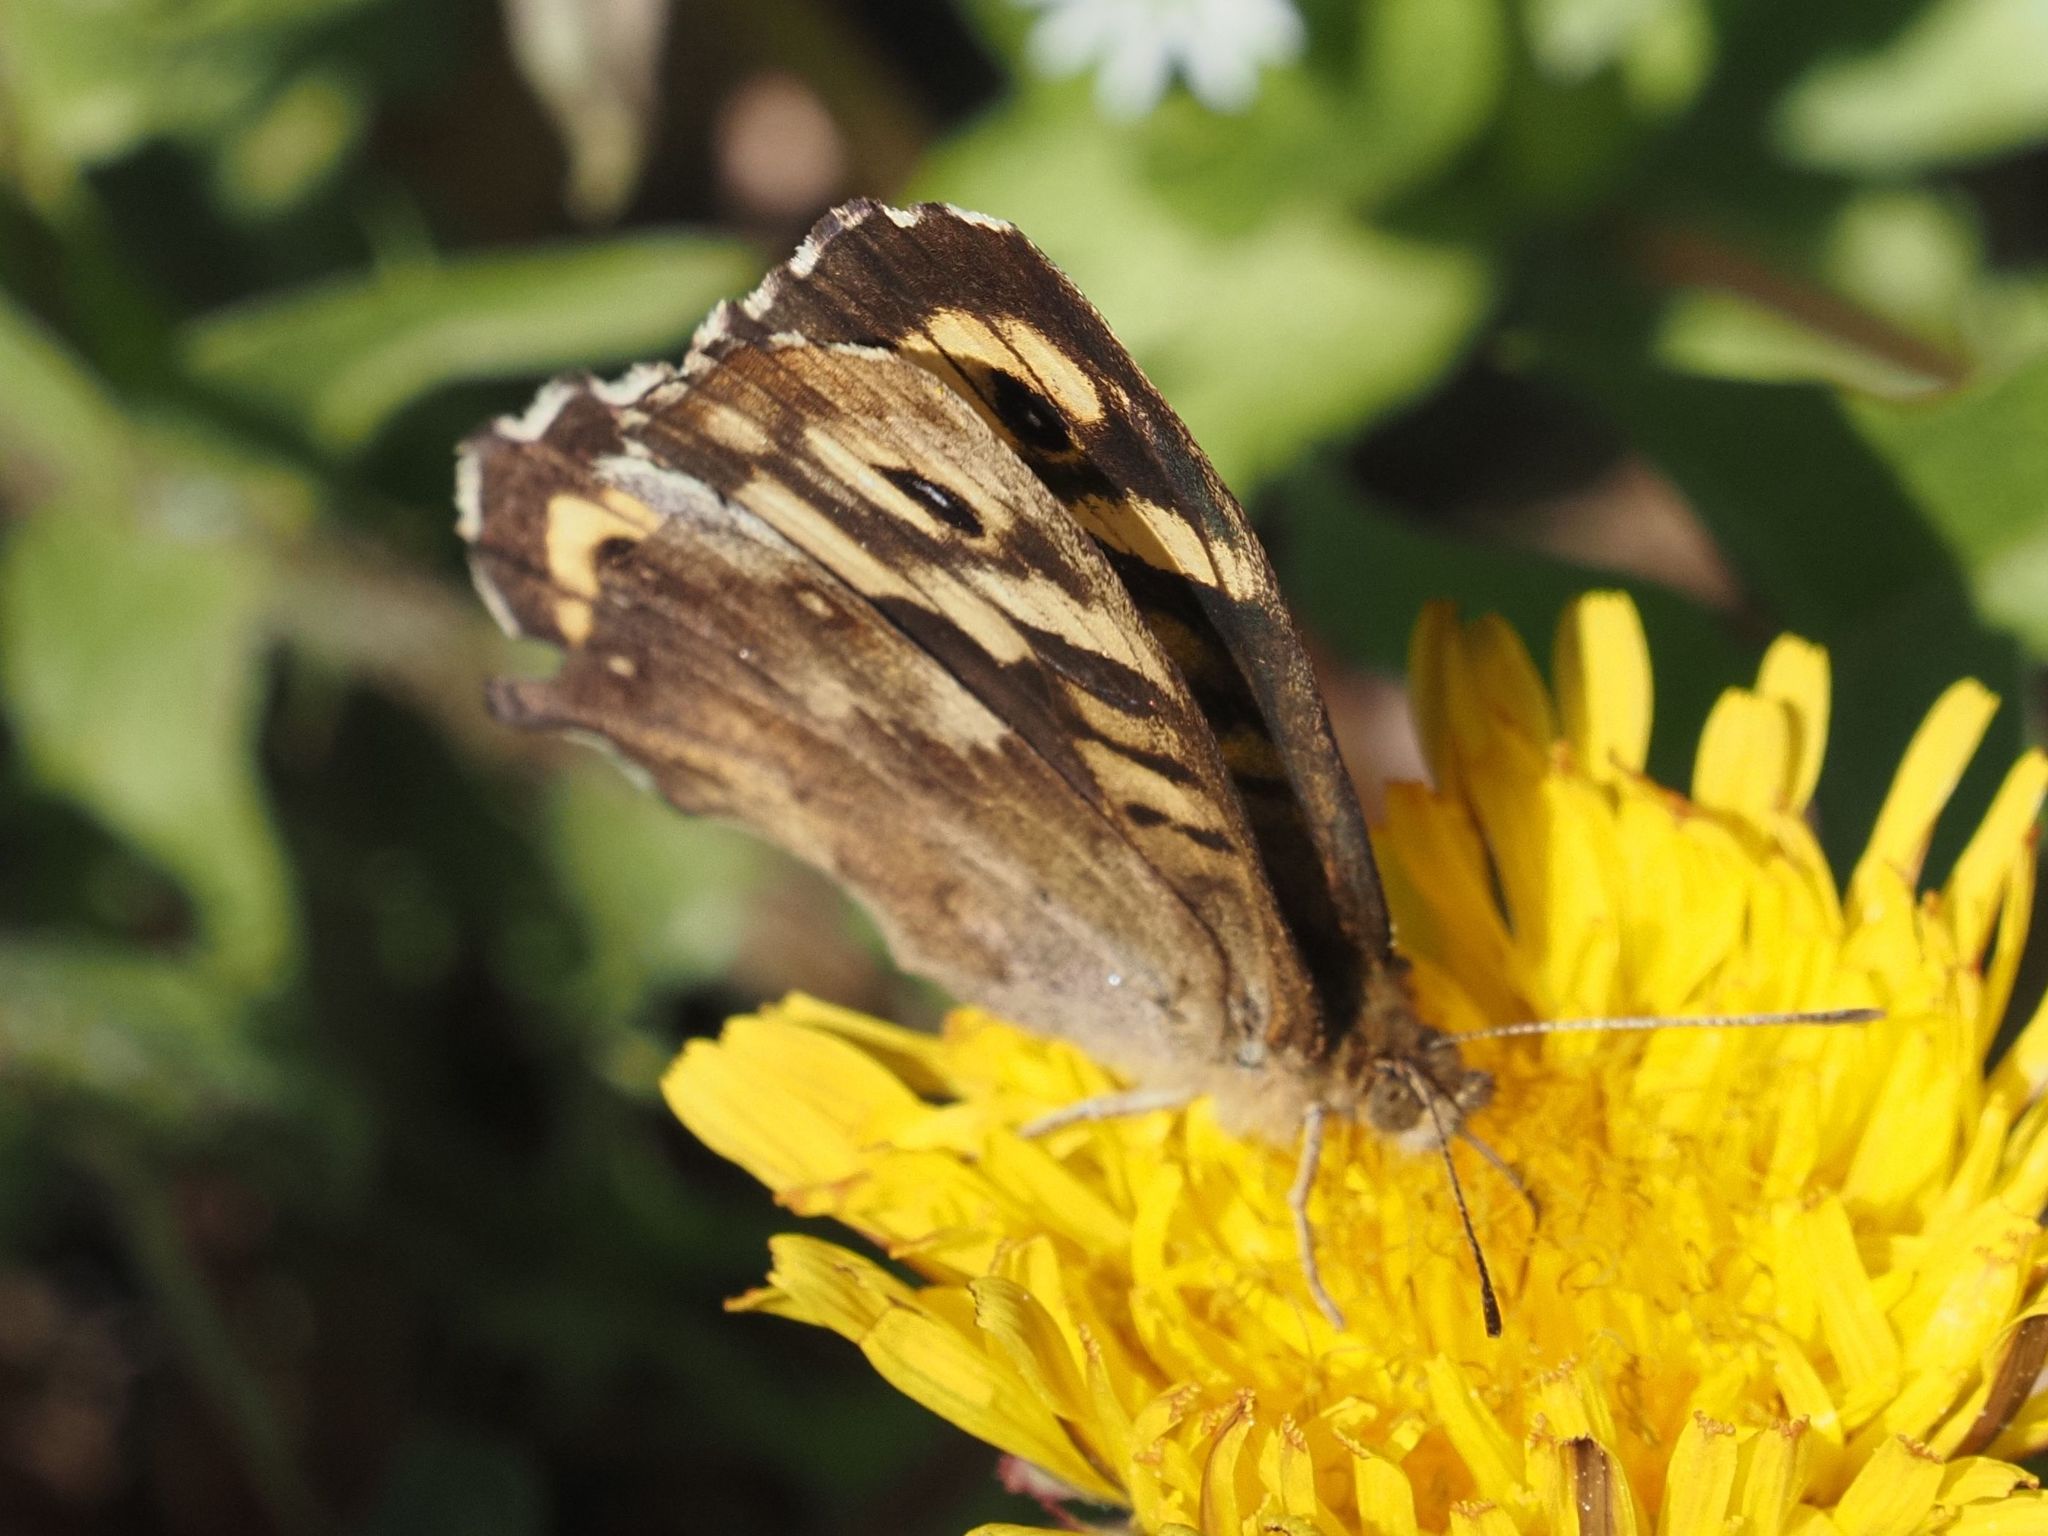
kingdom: Animalia
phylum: Arthropoda
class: Insecta
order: Lepidoptera
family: Nymphalidae
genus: Pararge
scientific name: Pararge aegeria
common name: Speckled wood
